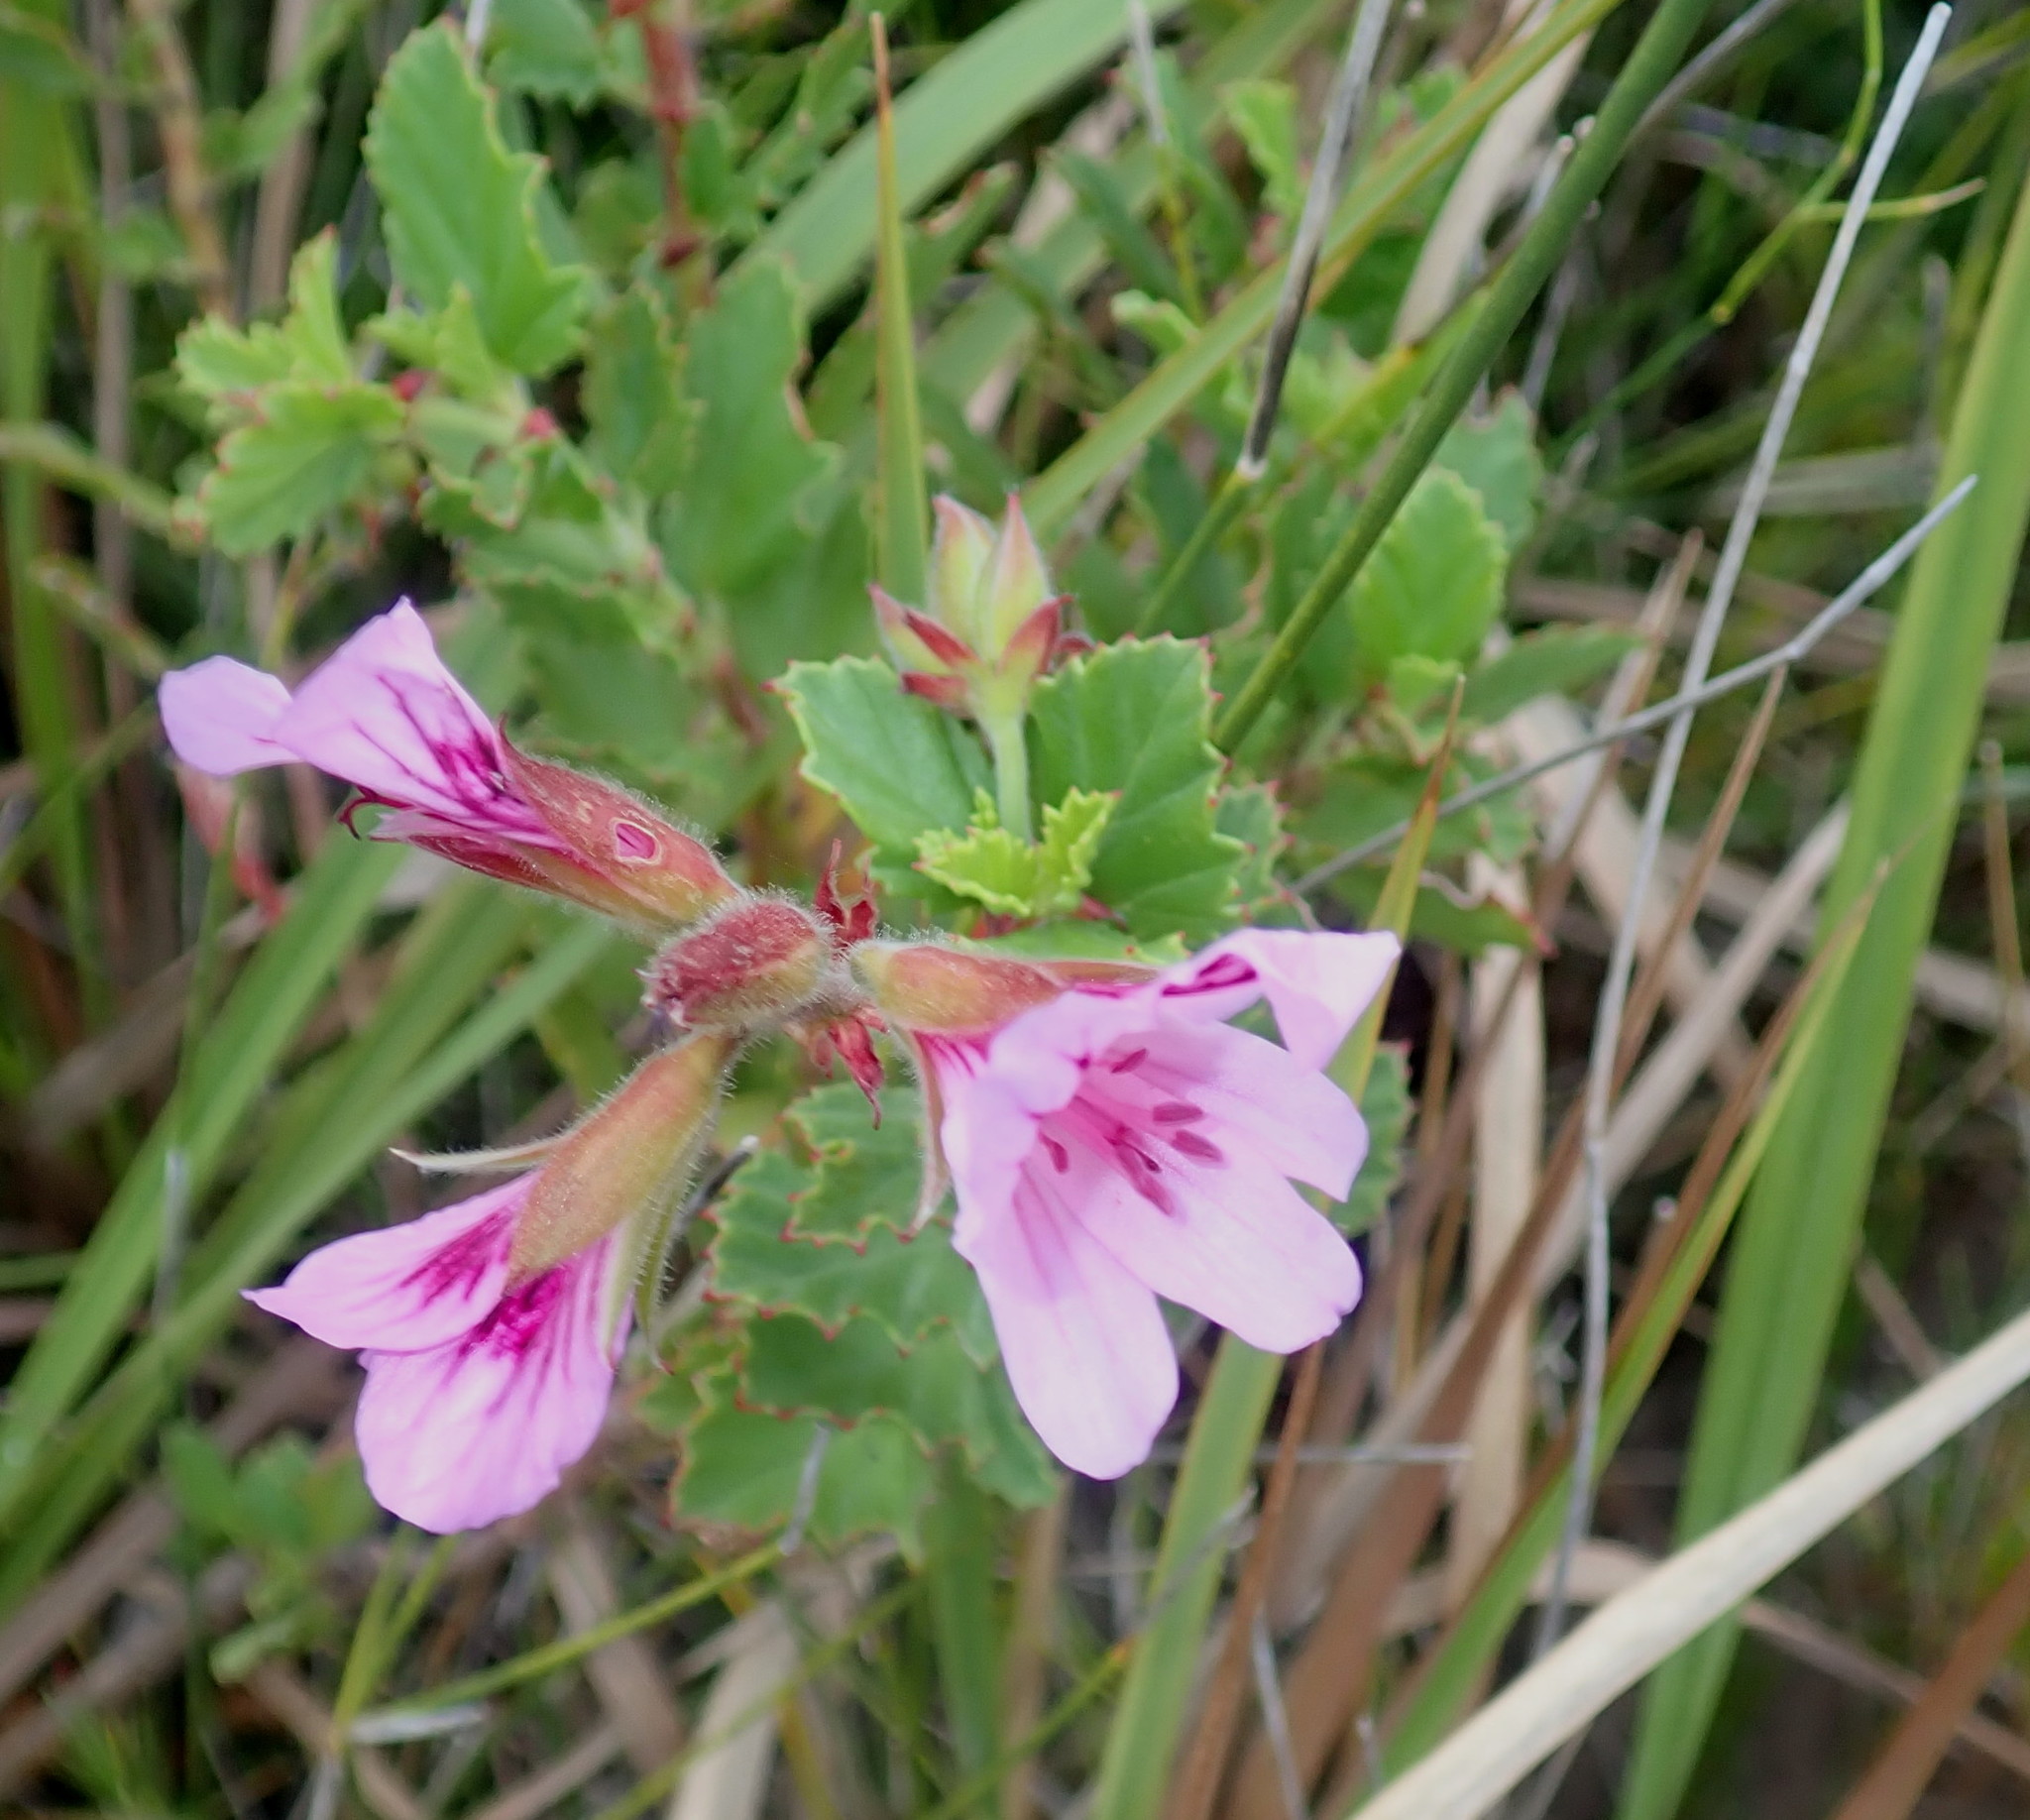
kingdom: Plantae
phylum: Tracheophyta
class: Magnoliopsida
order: Geraniales
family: Geraniaceae
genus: Pelargonium
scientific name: Pelargonium betulinum
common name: Birch-leaf pelargonium
